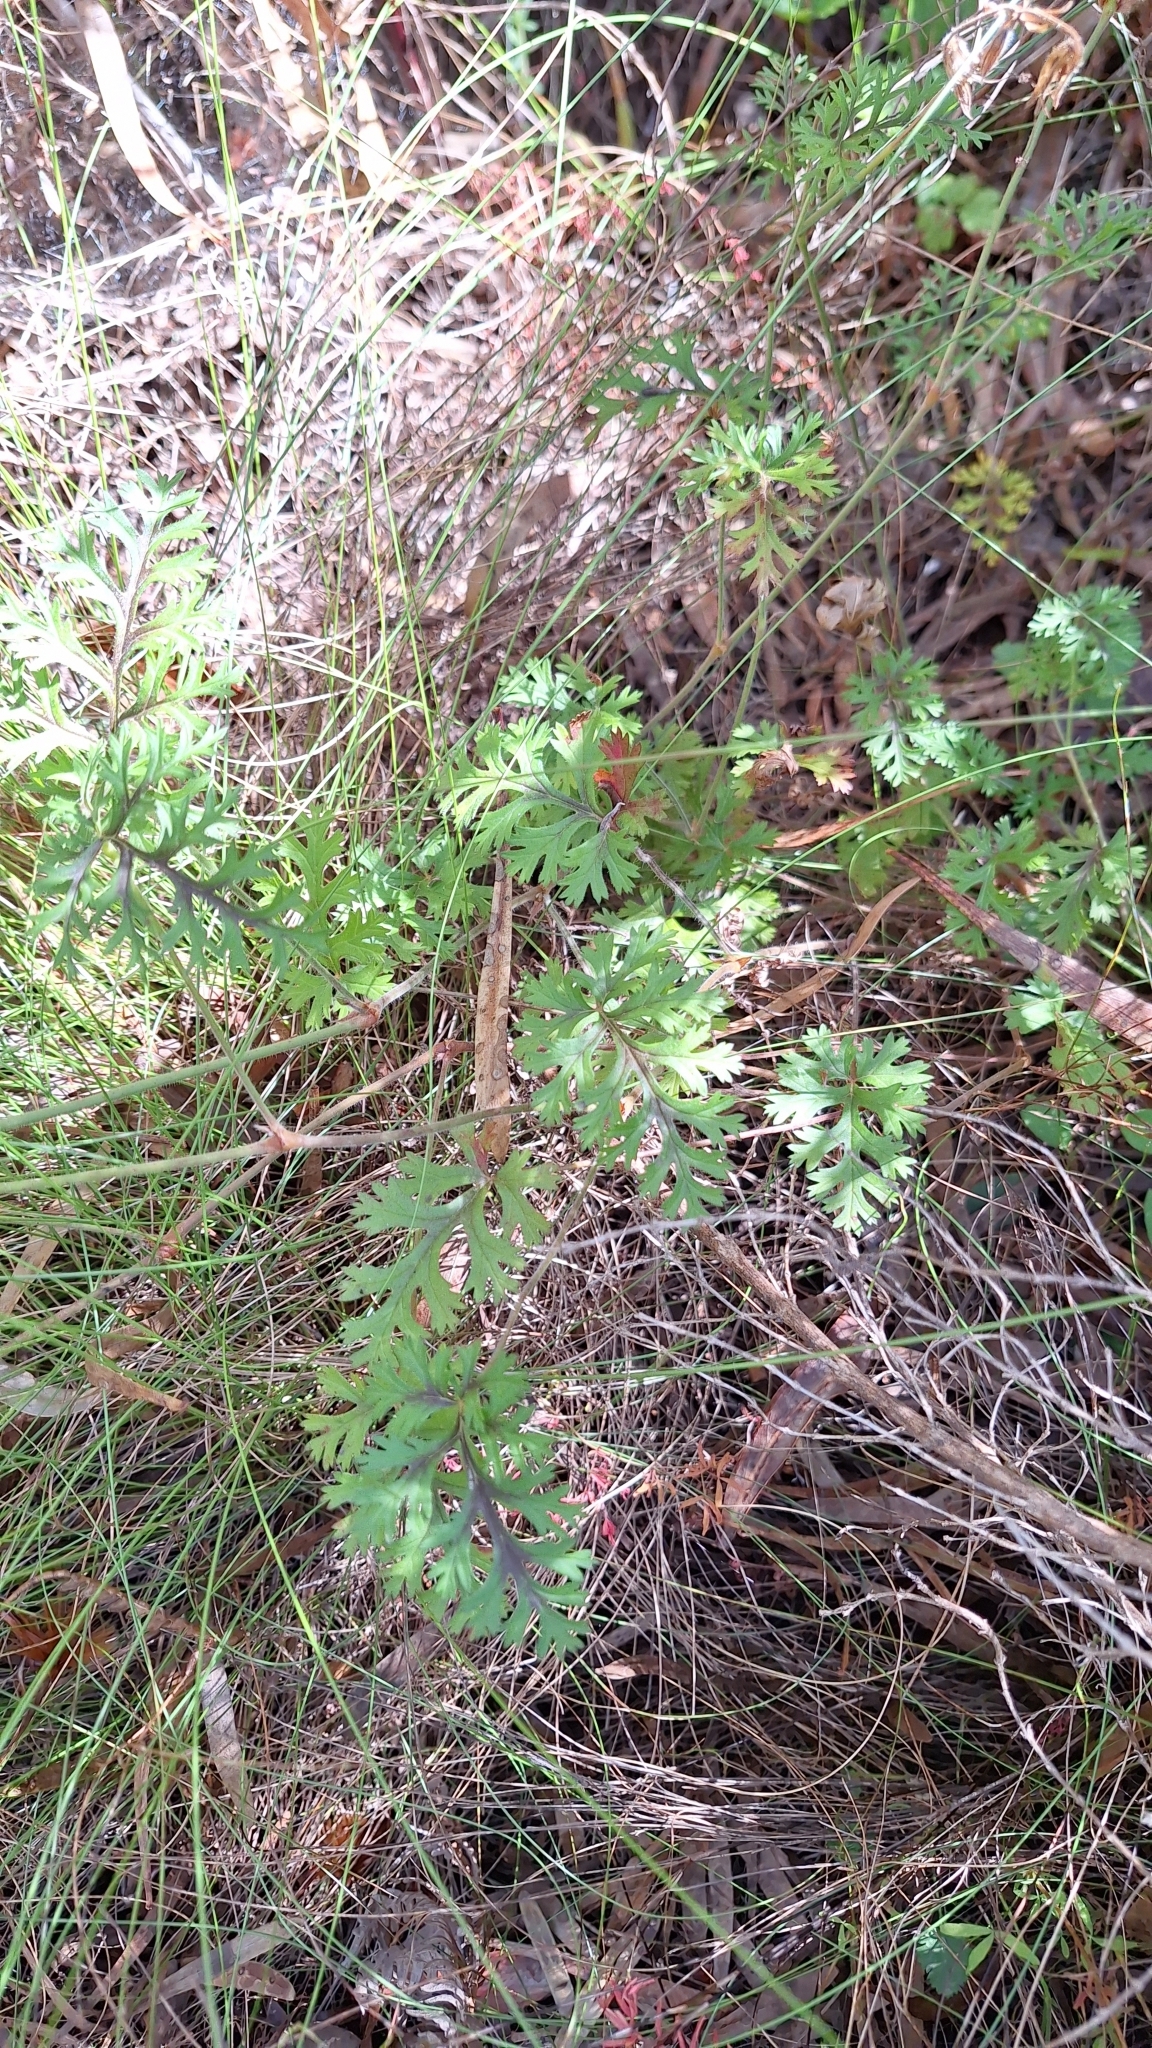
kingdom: Plantae
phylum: Tracheophyta
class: Magnoliopsida
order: Geraniales
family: Geraniaceae
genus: Pelargonium
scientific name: Pelargonium myrrhifolium
